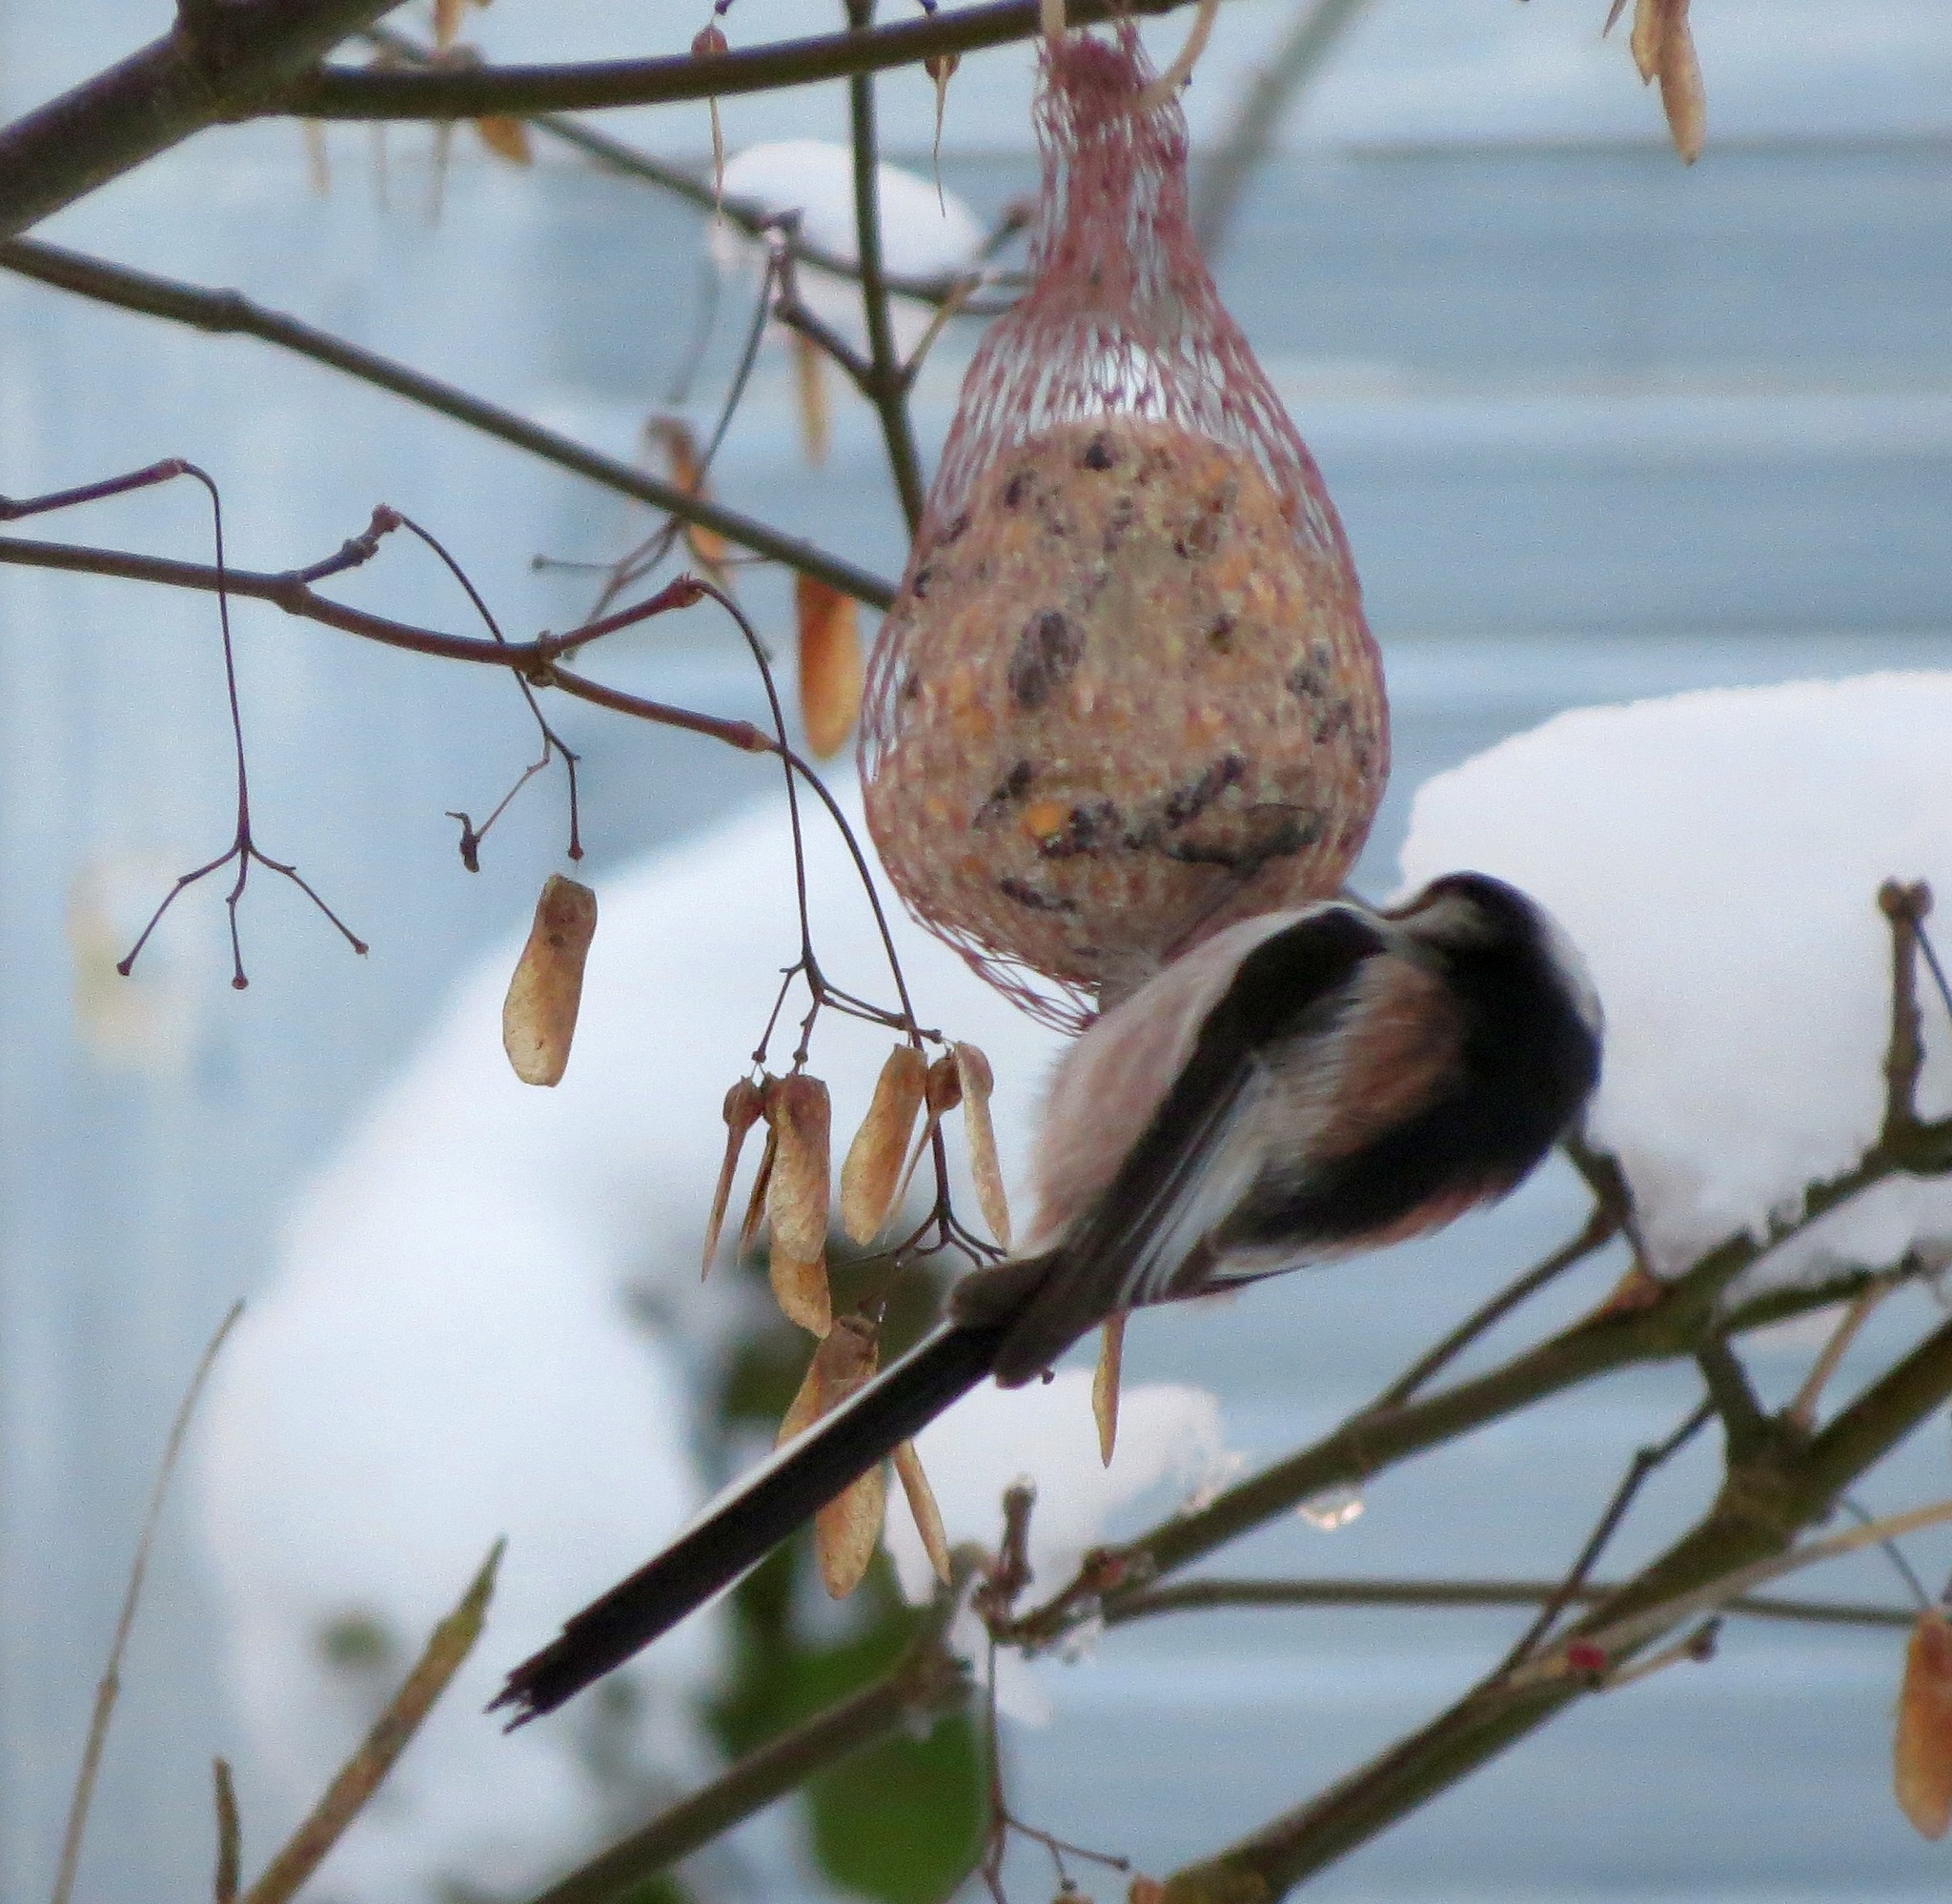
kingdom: Animalia
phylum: Chordata
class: Aves
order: Passeriformes
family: Aegithalidae
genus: Aegithalos
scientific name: Aegithalos caudatus
